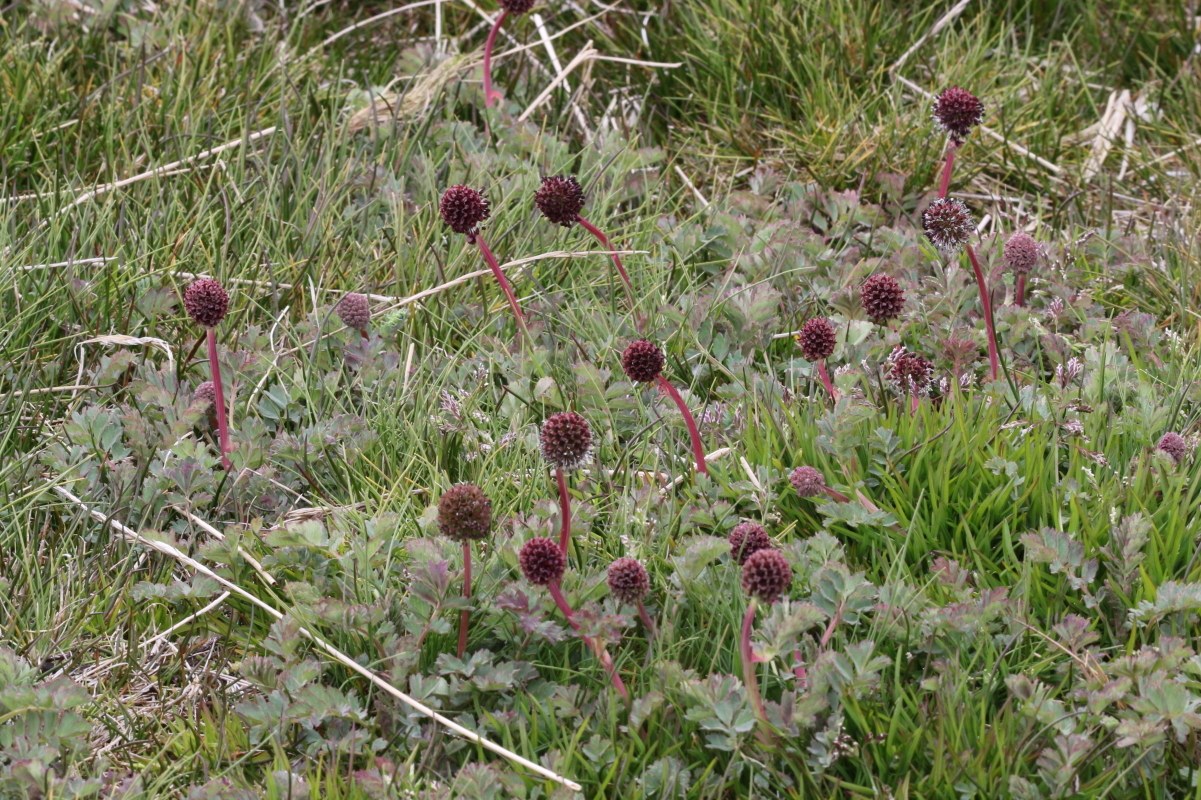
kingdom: Plantae
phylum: Tracheophyta
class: Magnoliopsida
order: Rosales
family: Rosaceae
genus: Acaena
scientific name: Acaena magellanica
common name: New zealand burr
